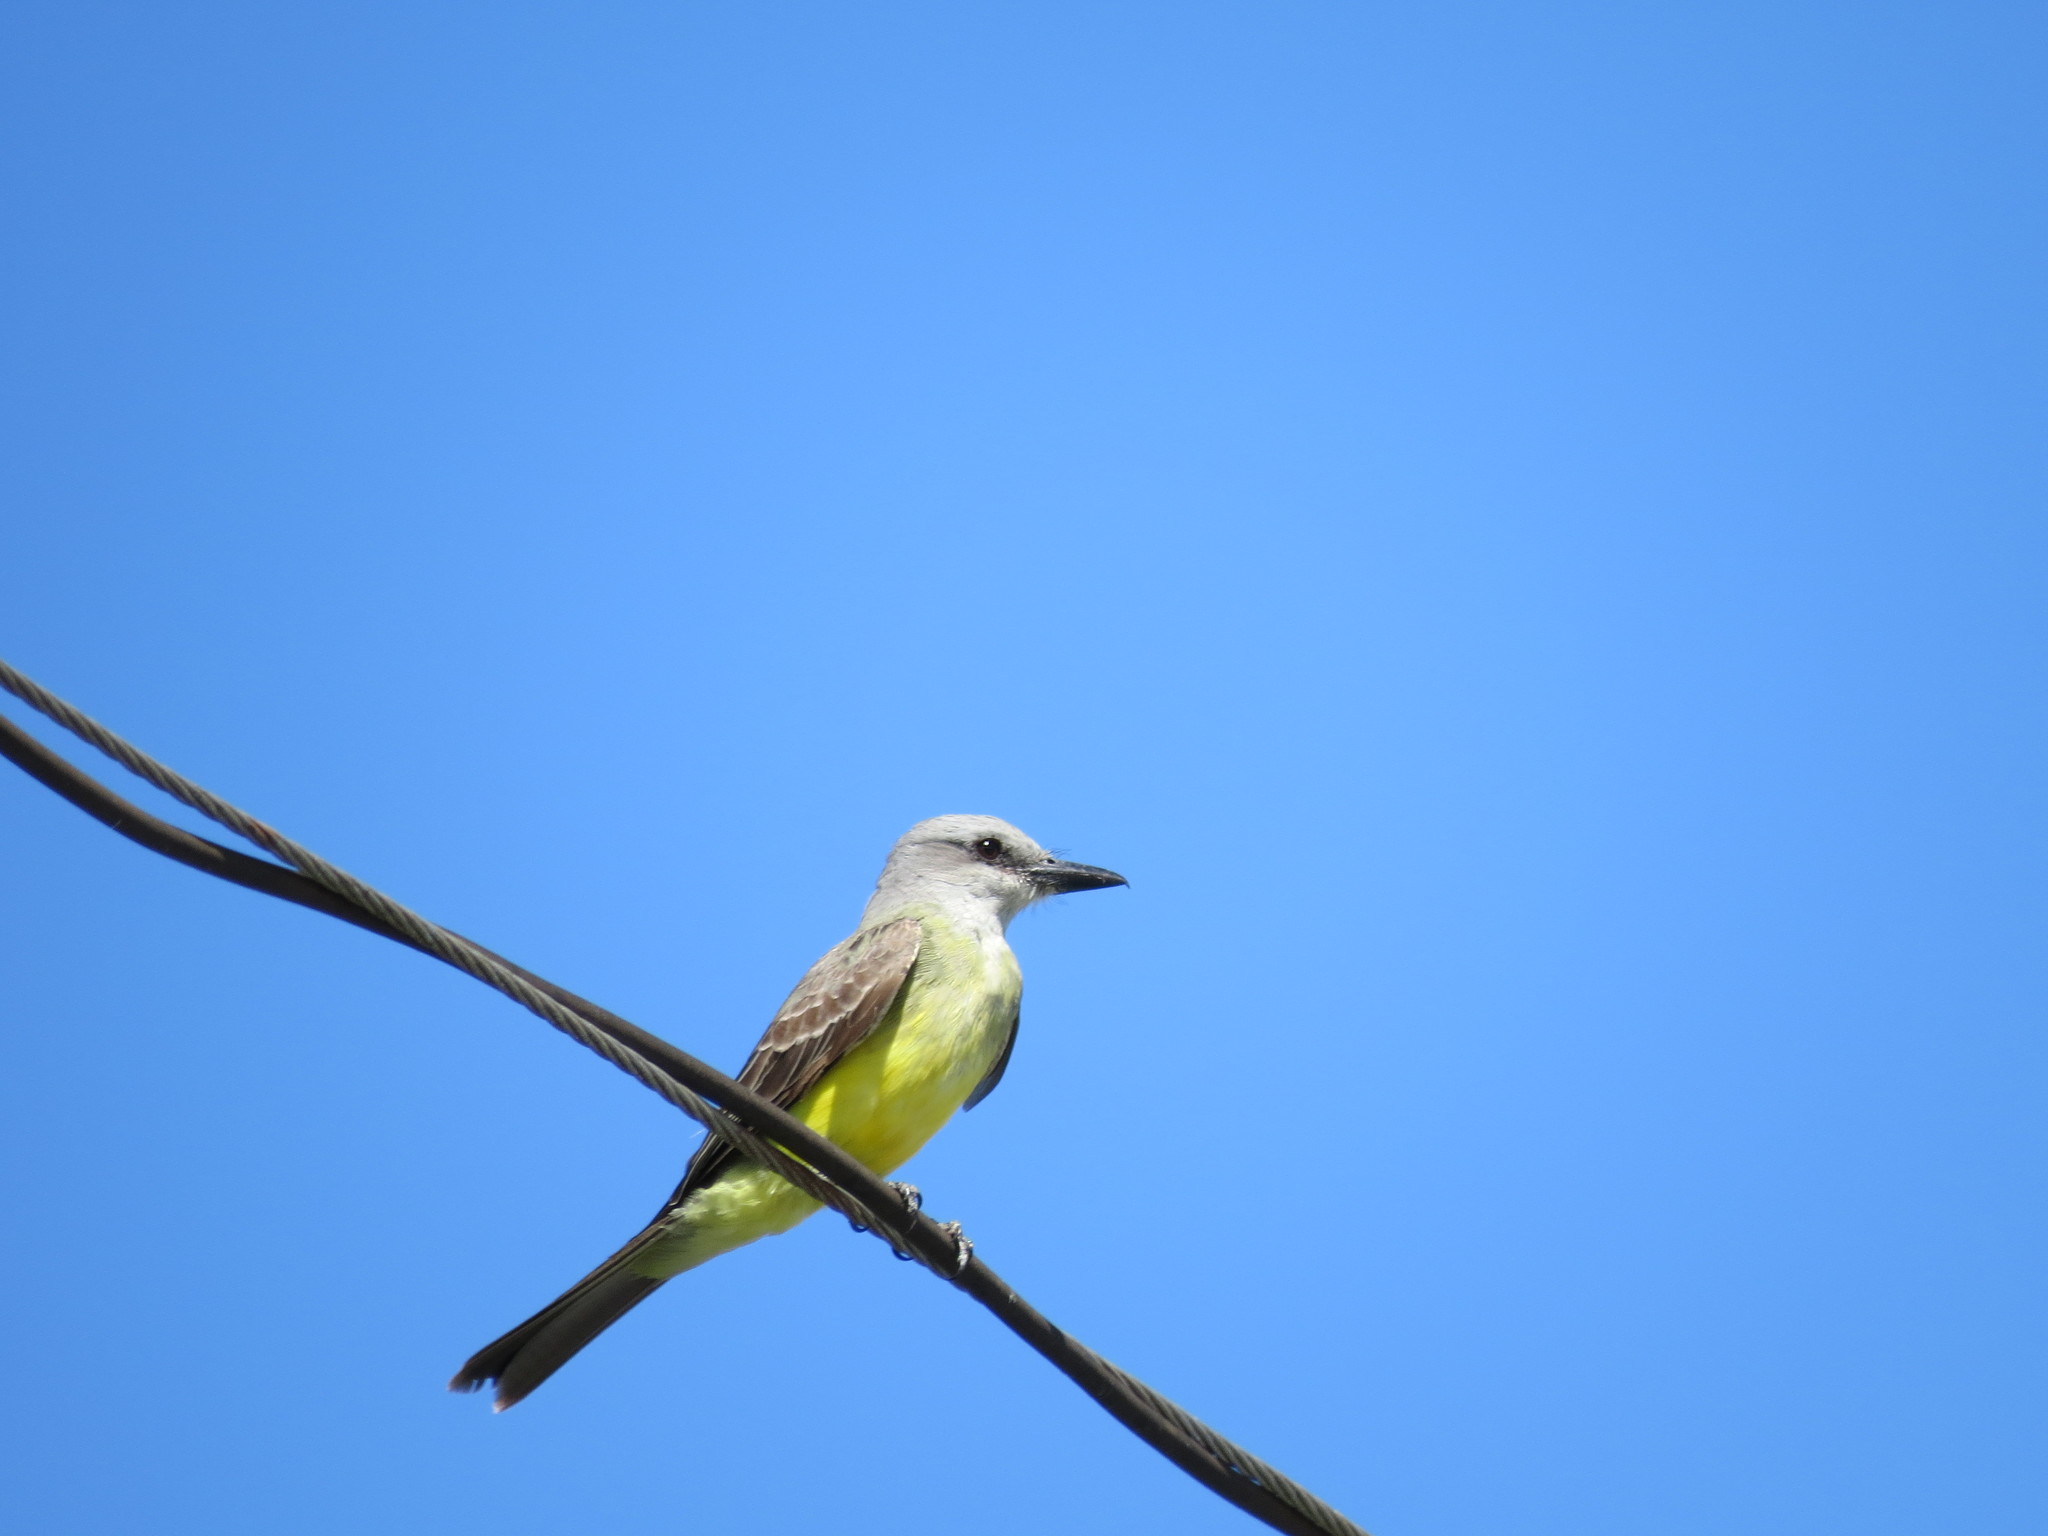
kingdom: Animalia
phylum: Chordata
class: Aves
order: Passeriformes
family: Tyrannidae
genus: Tyrannus
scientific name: Tyrannus melancholicus
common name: Tropical kingbird
